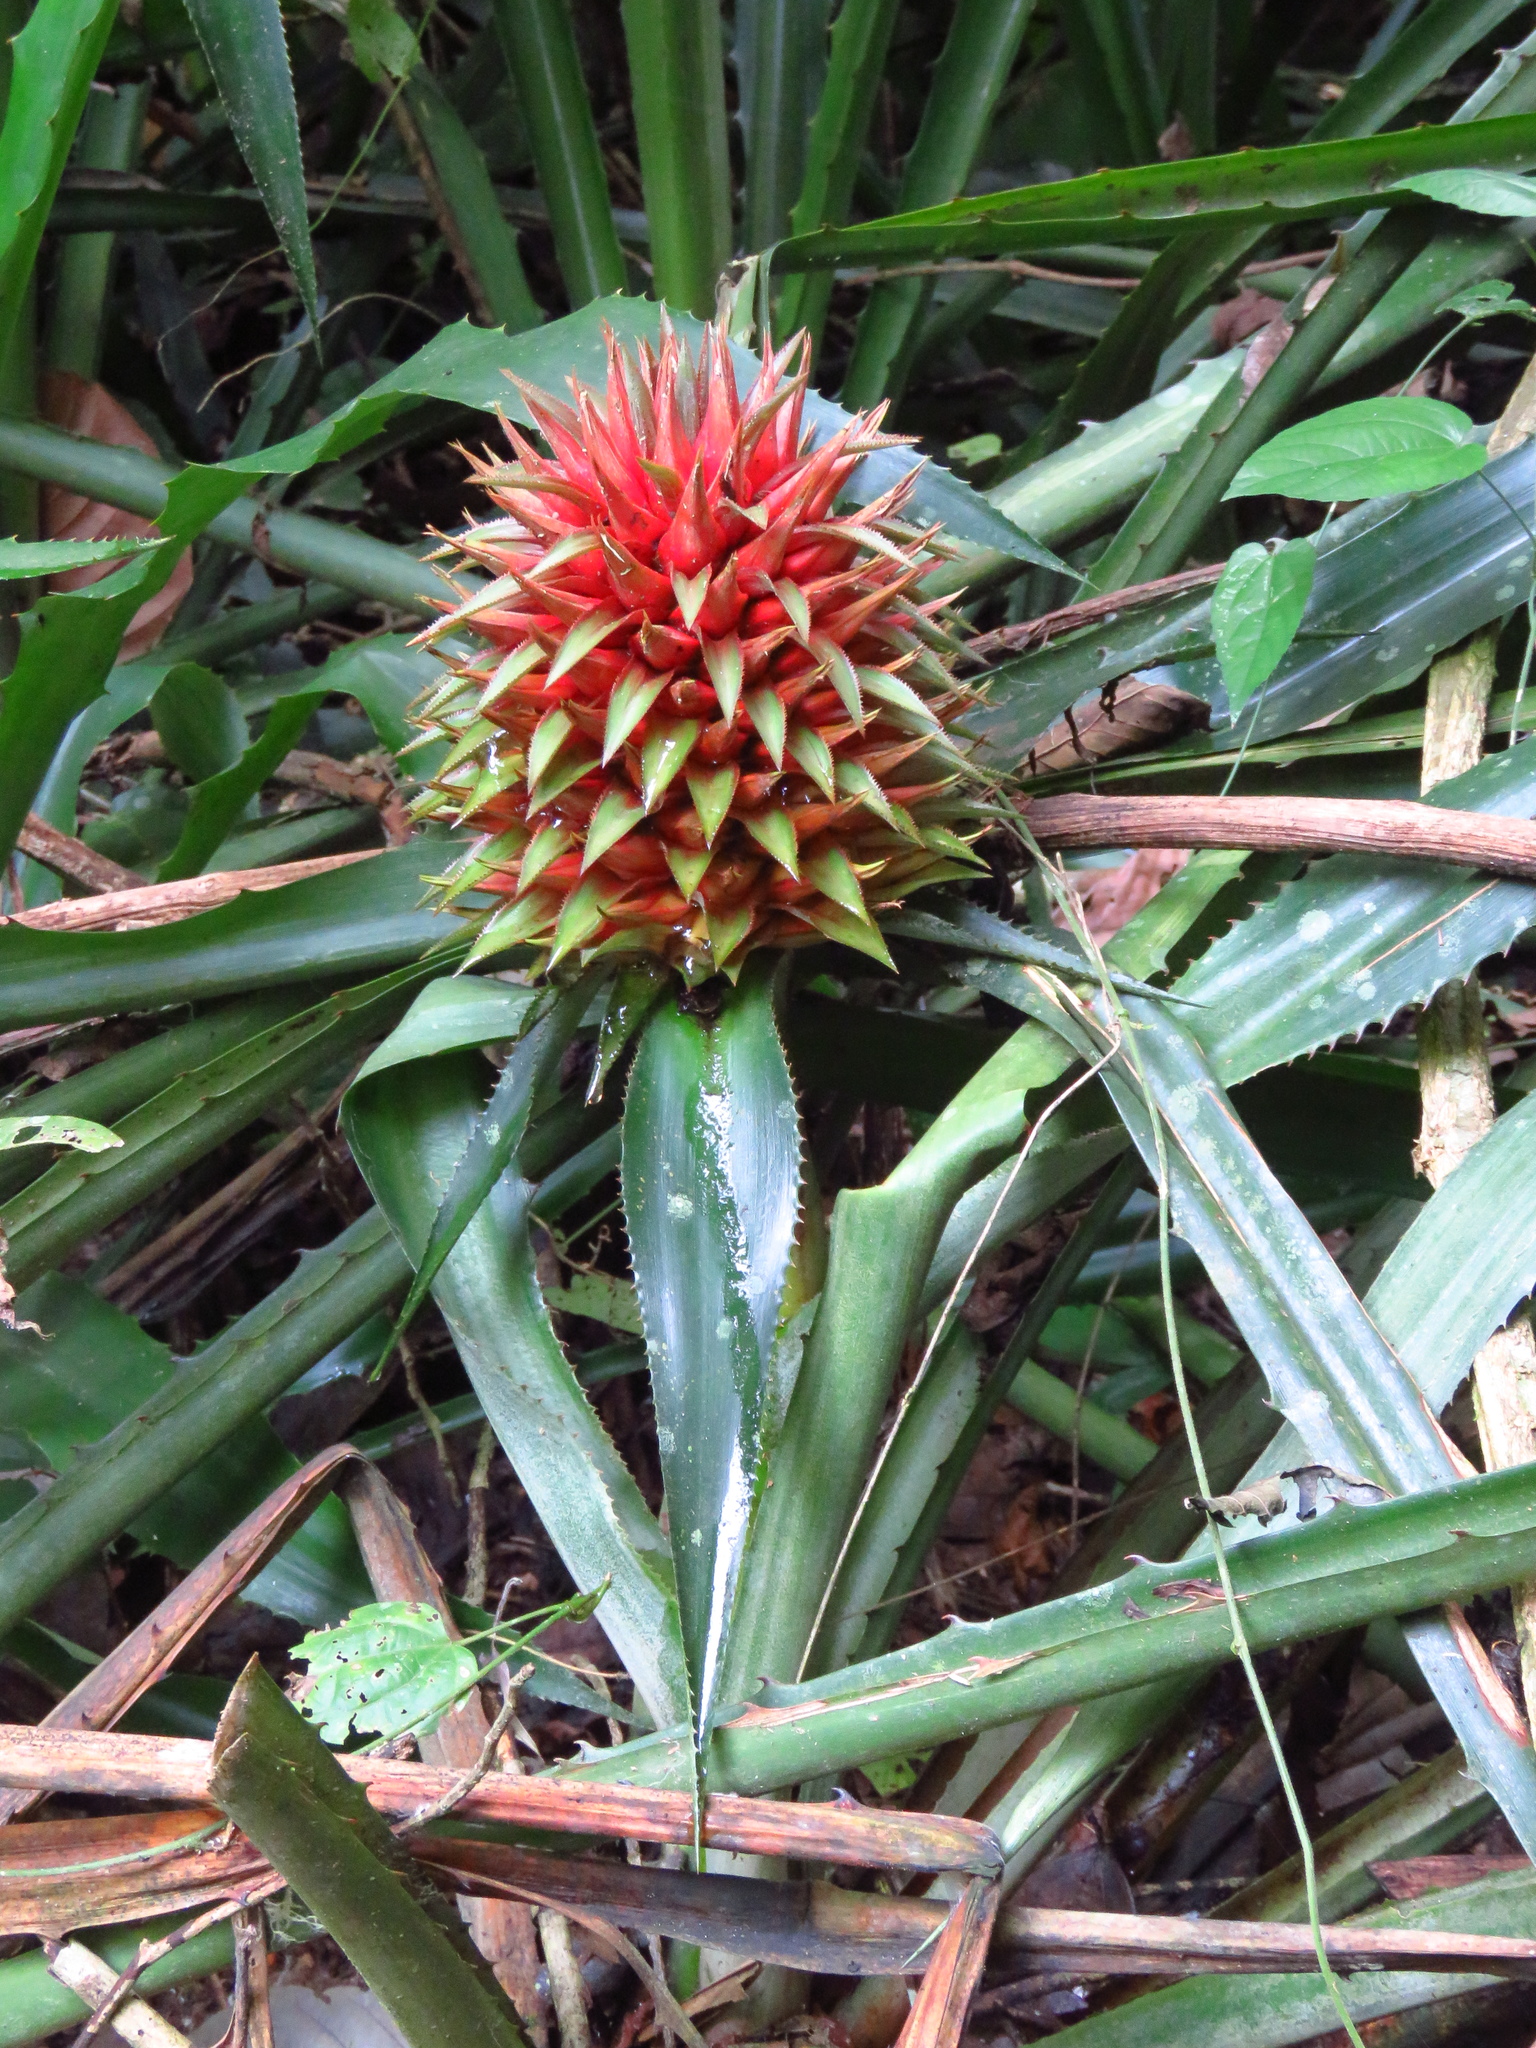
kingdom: Plantae
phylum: Tracheophyta
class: Liliopsida
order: Poales
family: Bromeliaceae
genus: Aechmea
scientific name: Aechmea magdalenae
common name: Arghan
